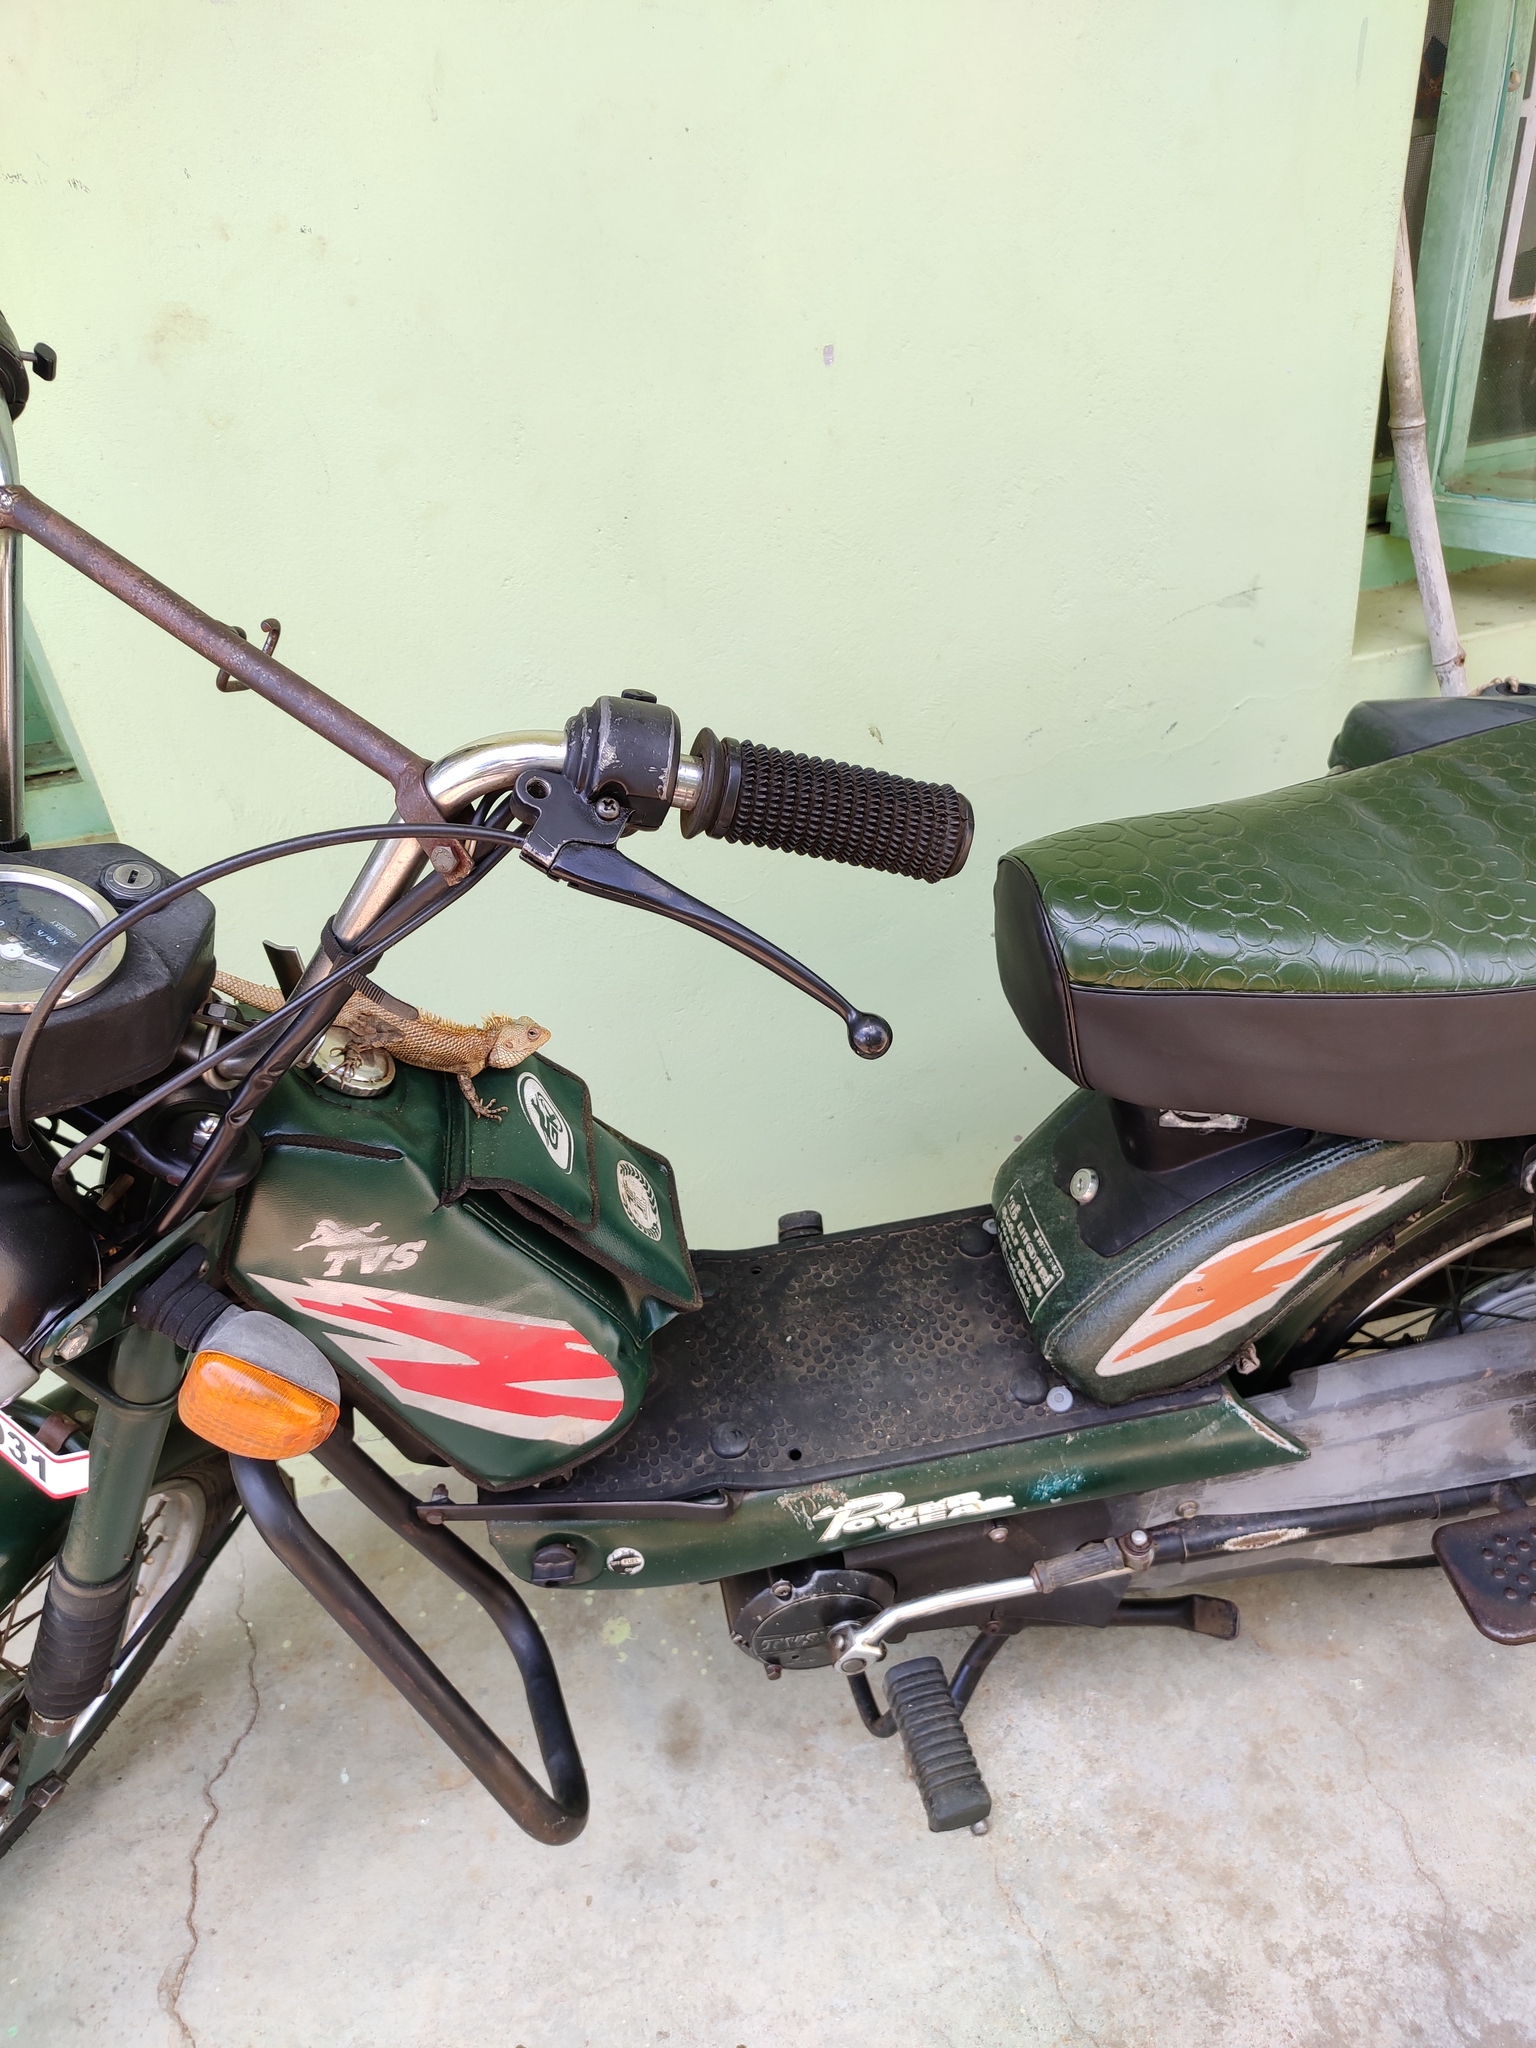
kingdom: Animalia
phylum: Chordata
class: Squamata
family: Agamidae
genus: Calotes
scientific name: Calotes versicolor
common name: Oriental garden lizard
